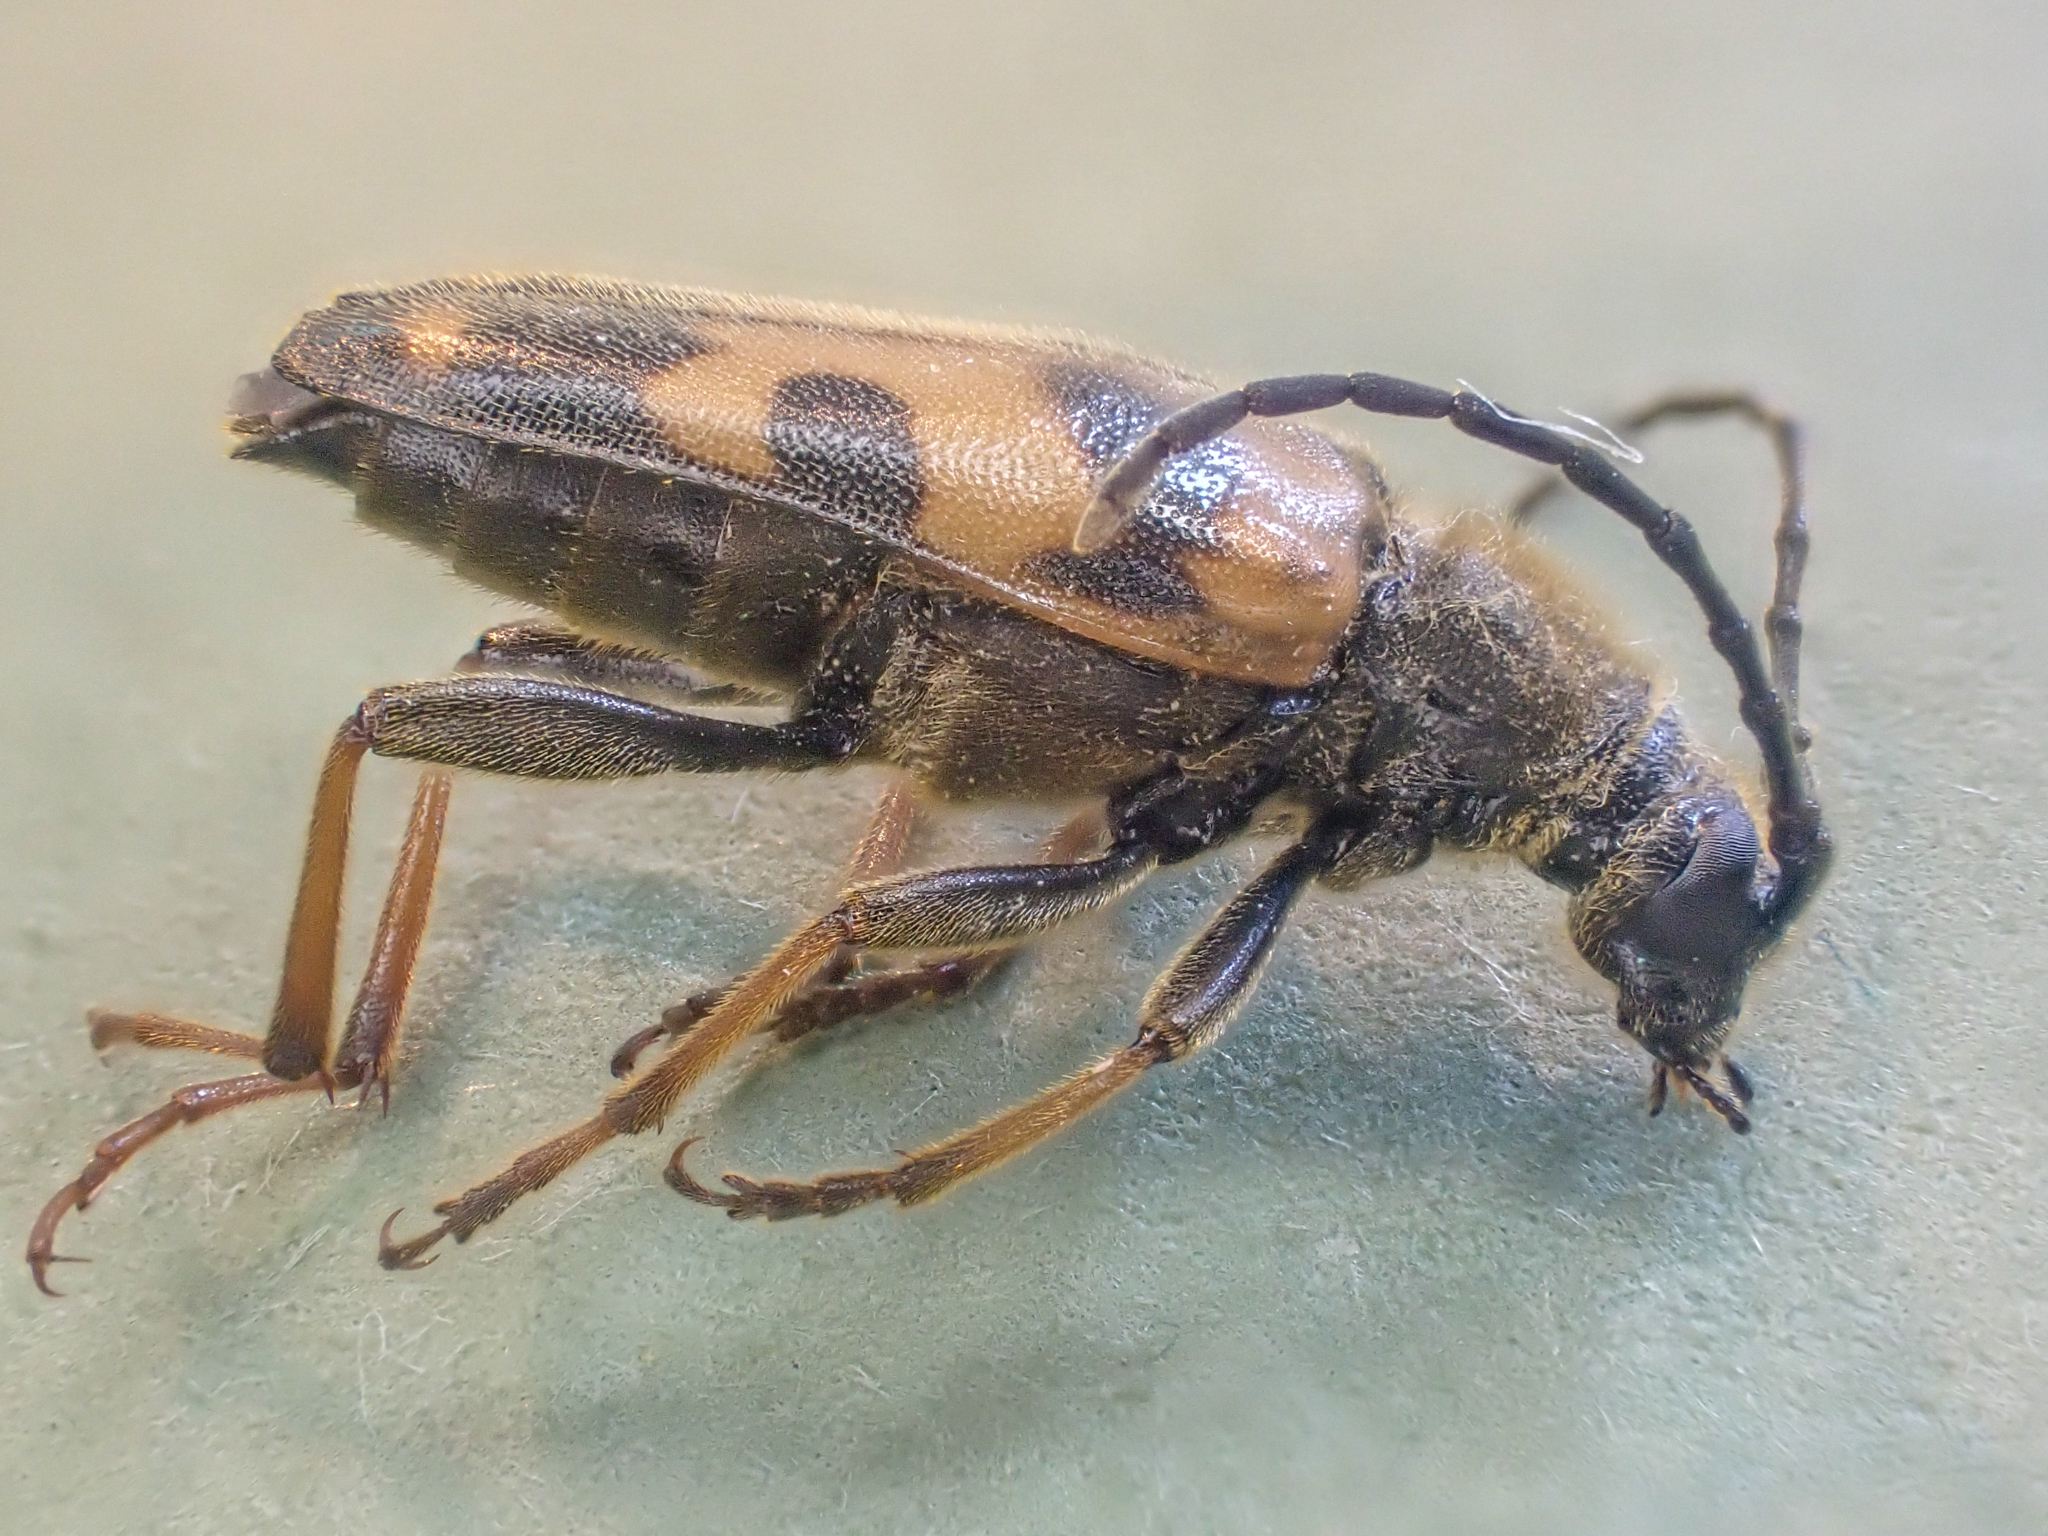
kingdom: Animalia
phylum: Arthropoda
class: Insecta
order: Coleoptera
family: Cerambycidae
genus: Xestoleptura
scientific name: Xestoleptura tibialis
